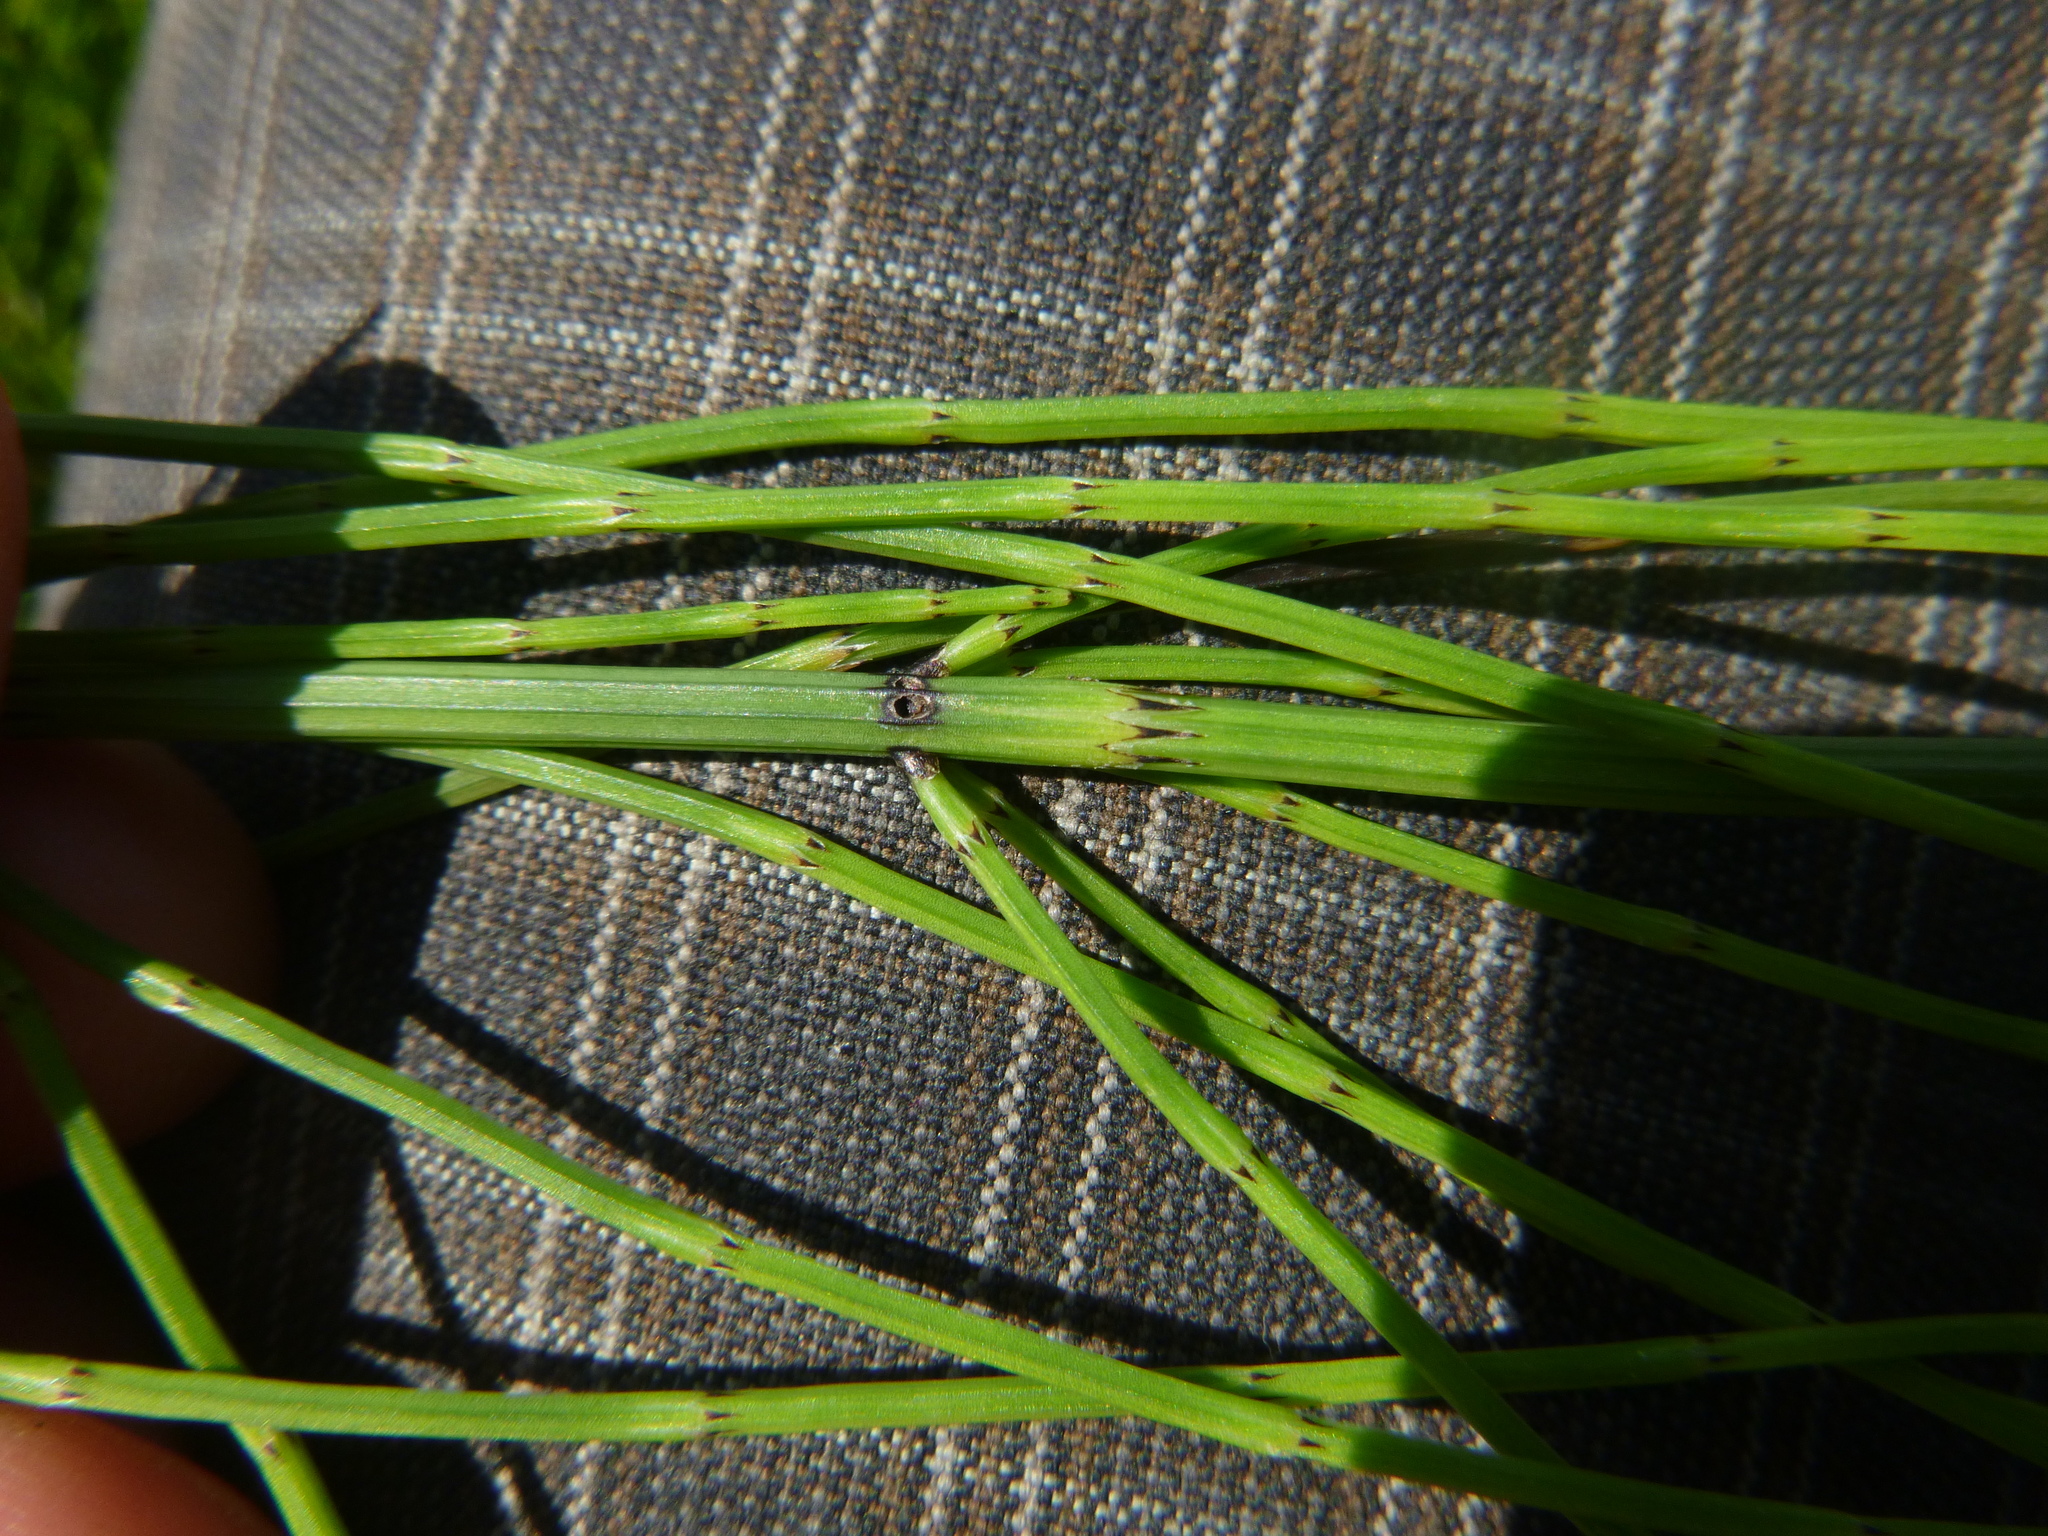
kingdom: Plantae
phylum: Tracheophyta
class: Polypodiopsida
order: Equisetales
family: Equisetaceae
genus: Equisetum
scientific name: Equisetum palustre
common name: Marsh horsetail
